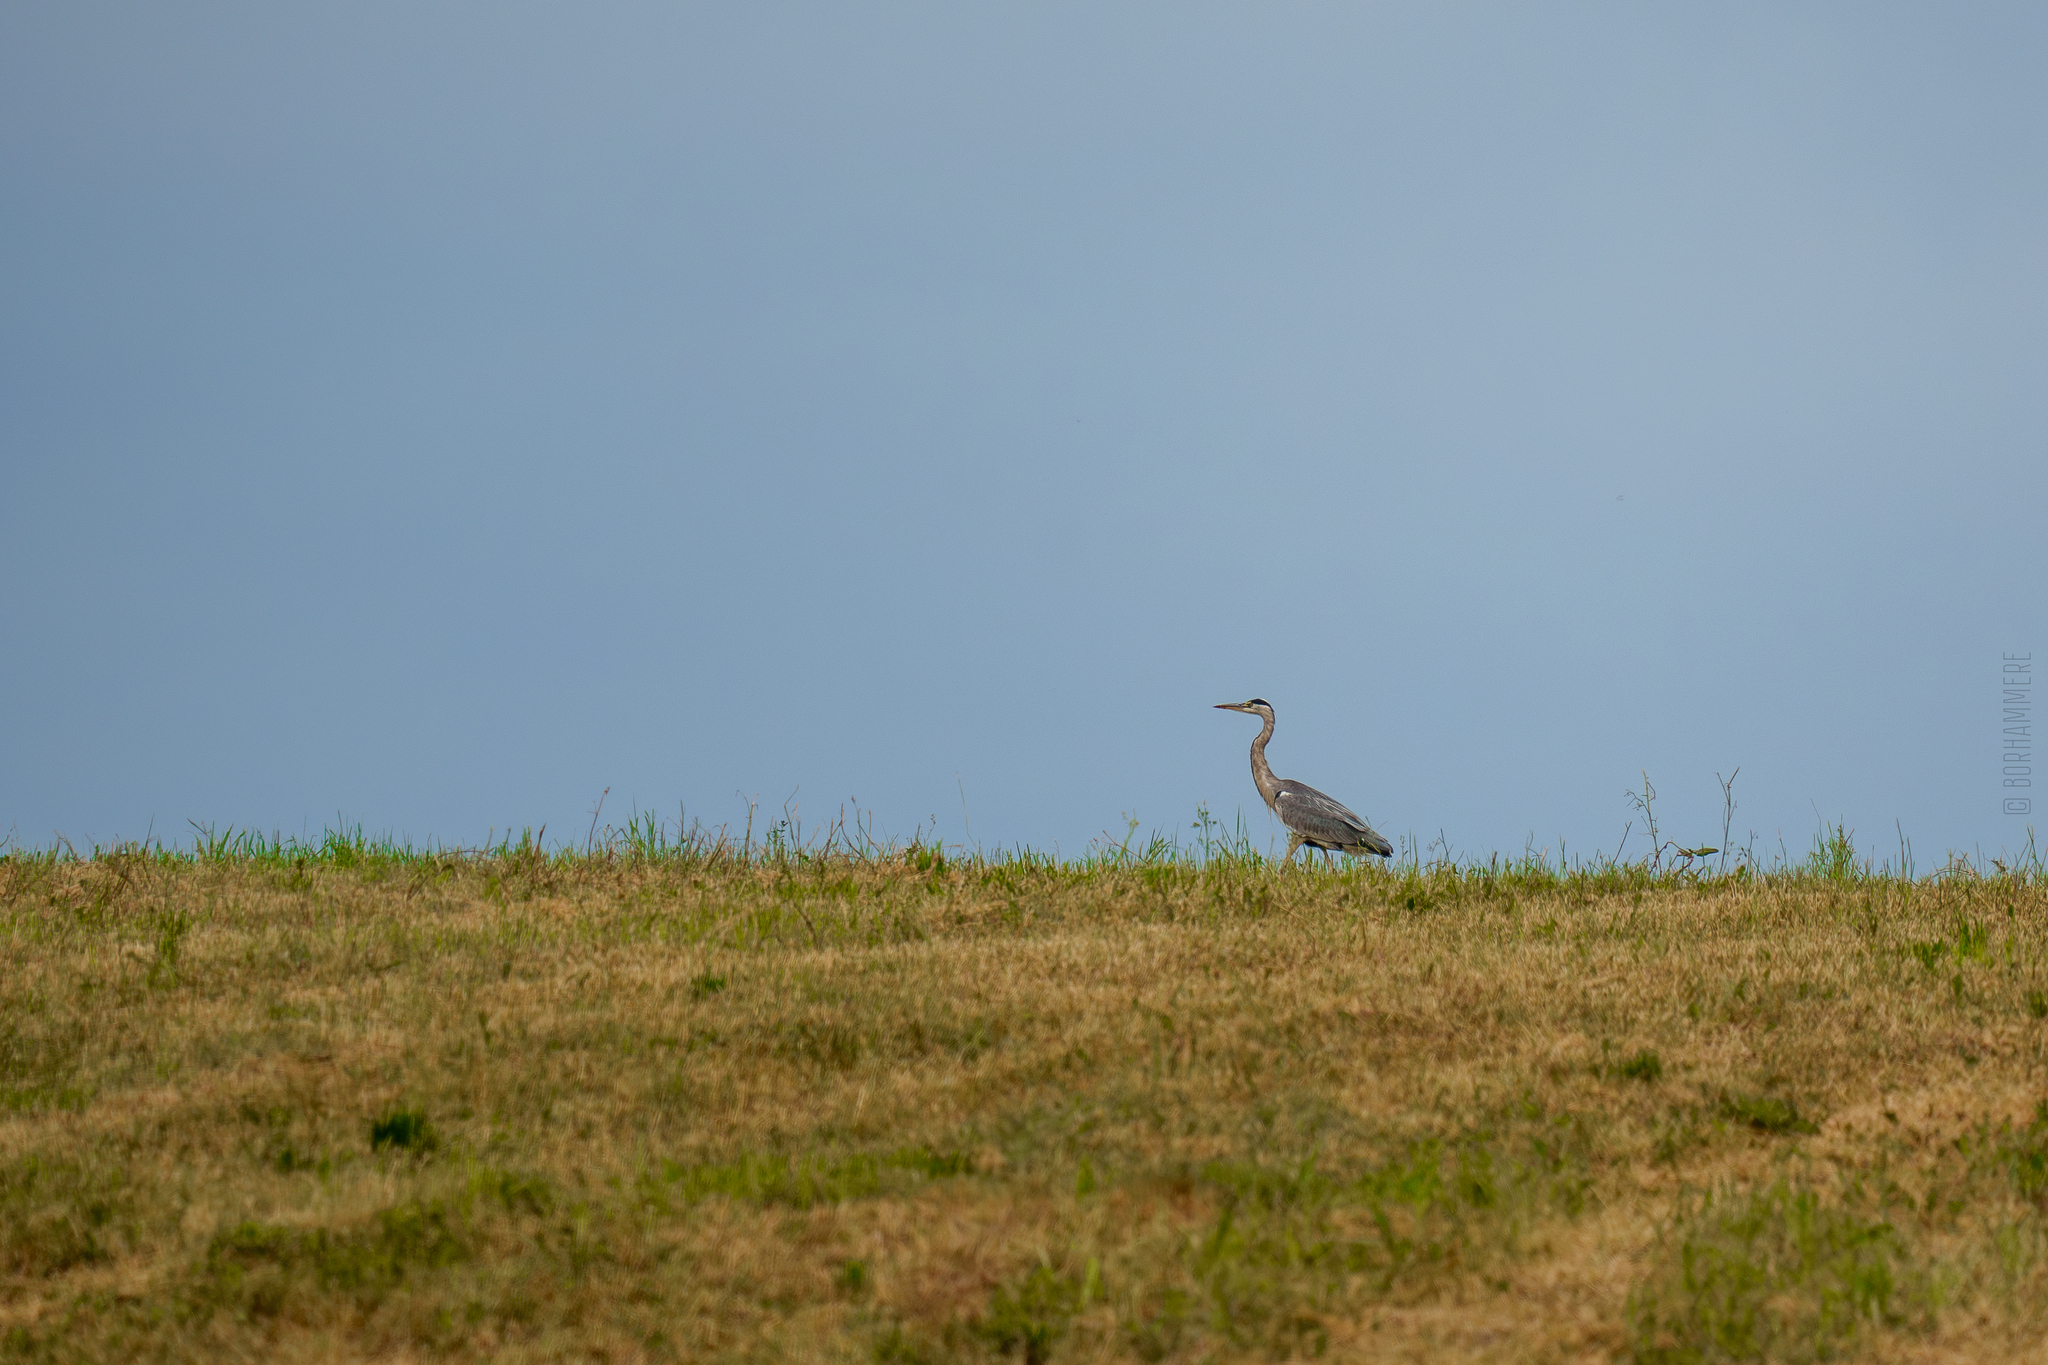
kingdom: Animalia
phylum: Chordata
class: Aves
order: Pelecaniformes
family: Ardeidae
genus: Ardea
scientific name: Ardea cinerea
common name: Grey heron
